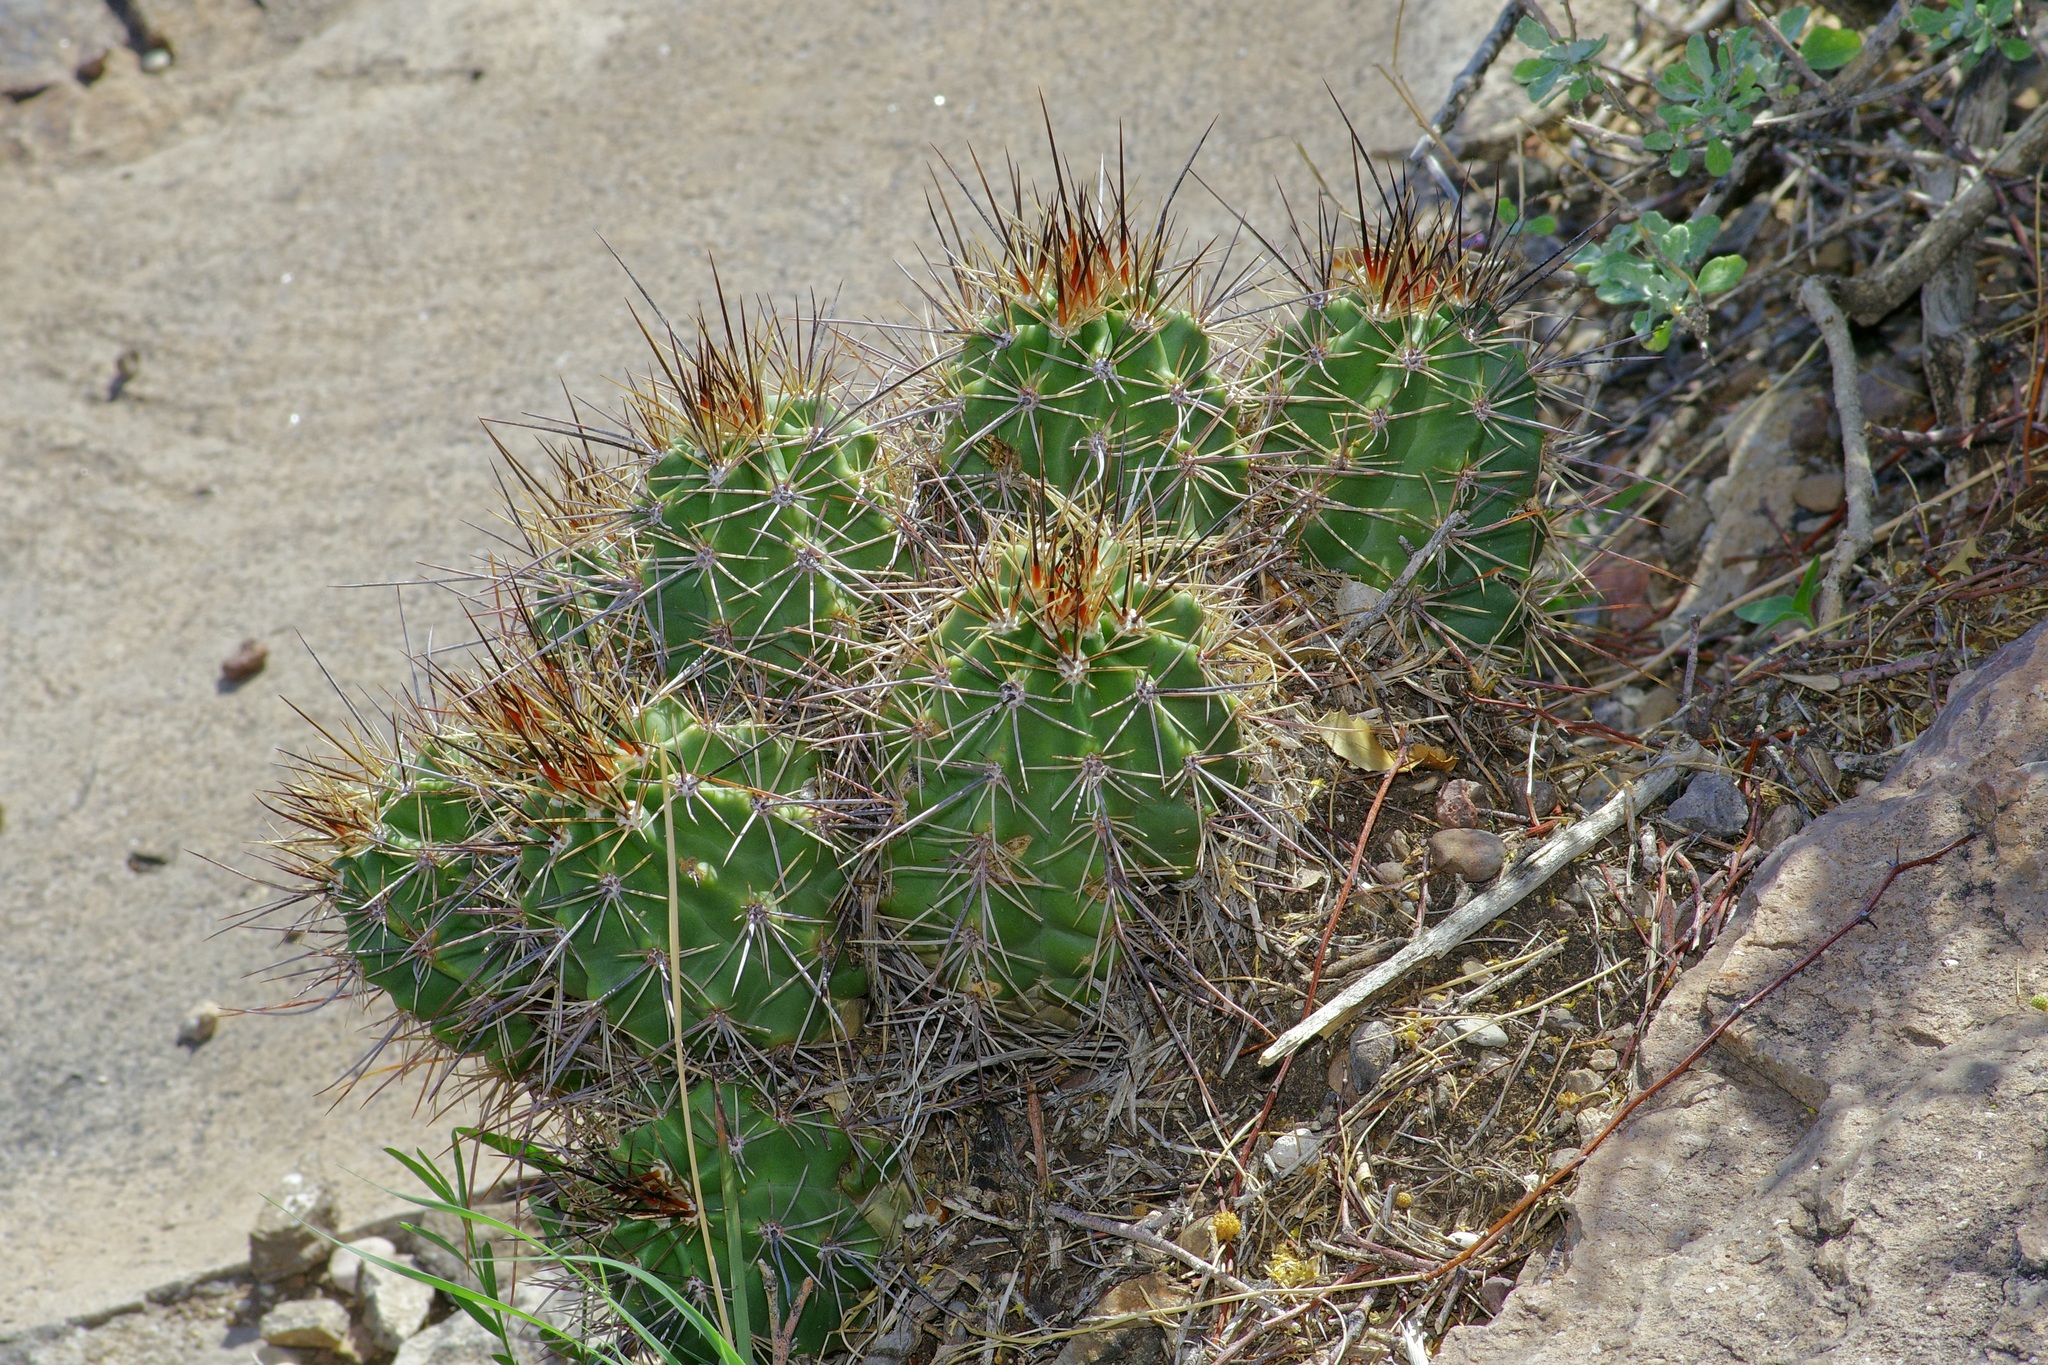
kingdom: Plantae
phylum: Tracheophyta
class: Magnoliopsida
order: Caryophyllales
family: Cactaceae
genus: Echinocereus
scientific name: Echinocereus coccineus
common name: Scarlet hedgehog cactus
